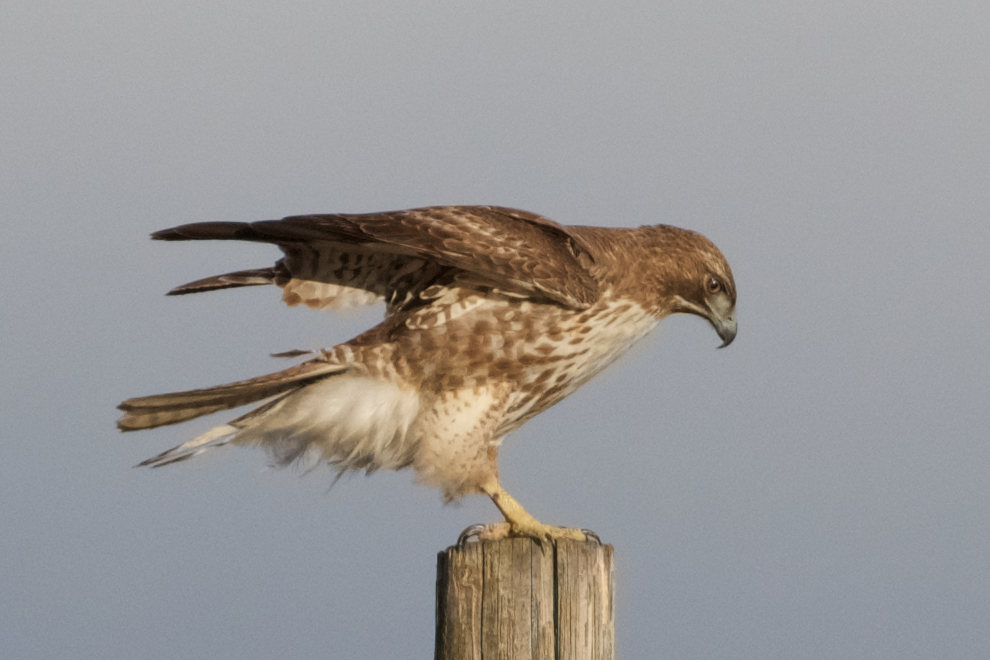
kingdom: Animalia
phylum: Chordata
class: Aves
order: Accipitriformes
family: Accipitridae
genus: Buteo
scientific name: Buteo jamaicensis
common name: Red-tailed hawk
